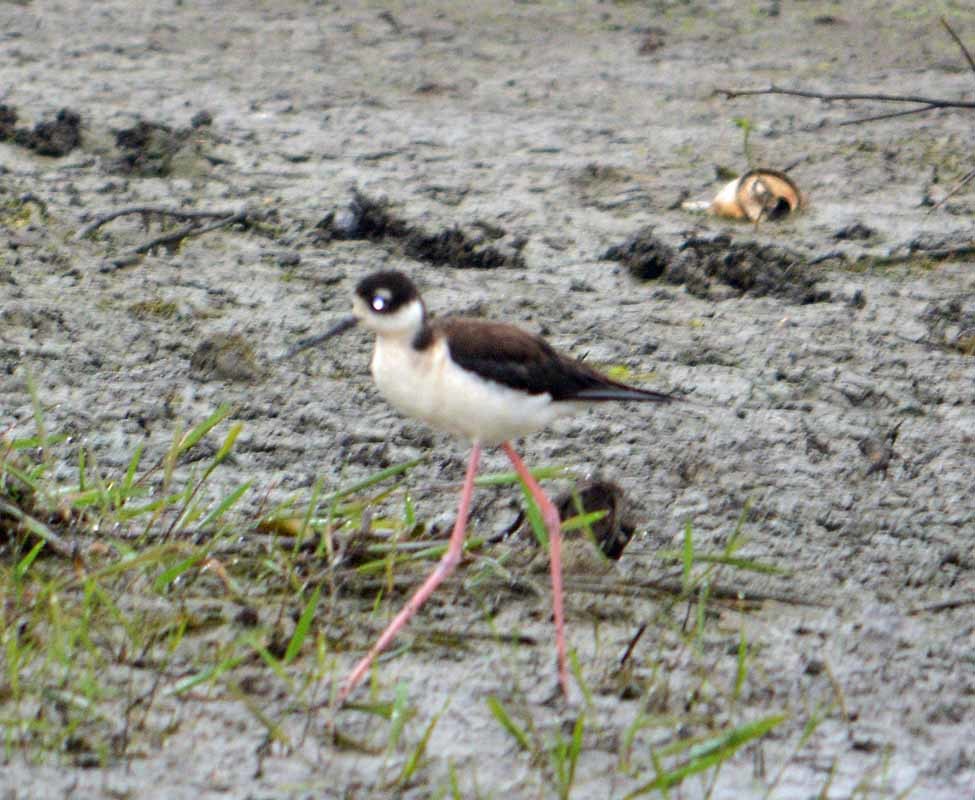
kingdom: Animalia
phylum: Chordata
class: Aves
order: Charadriiformes
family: Recurvirostridae
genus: Himantopus
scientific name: Himantopus mexicanus
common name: Black-necked stilt
